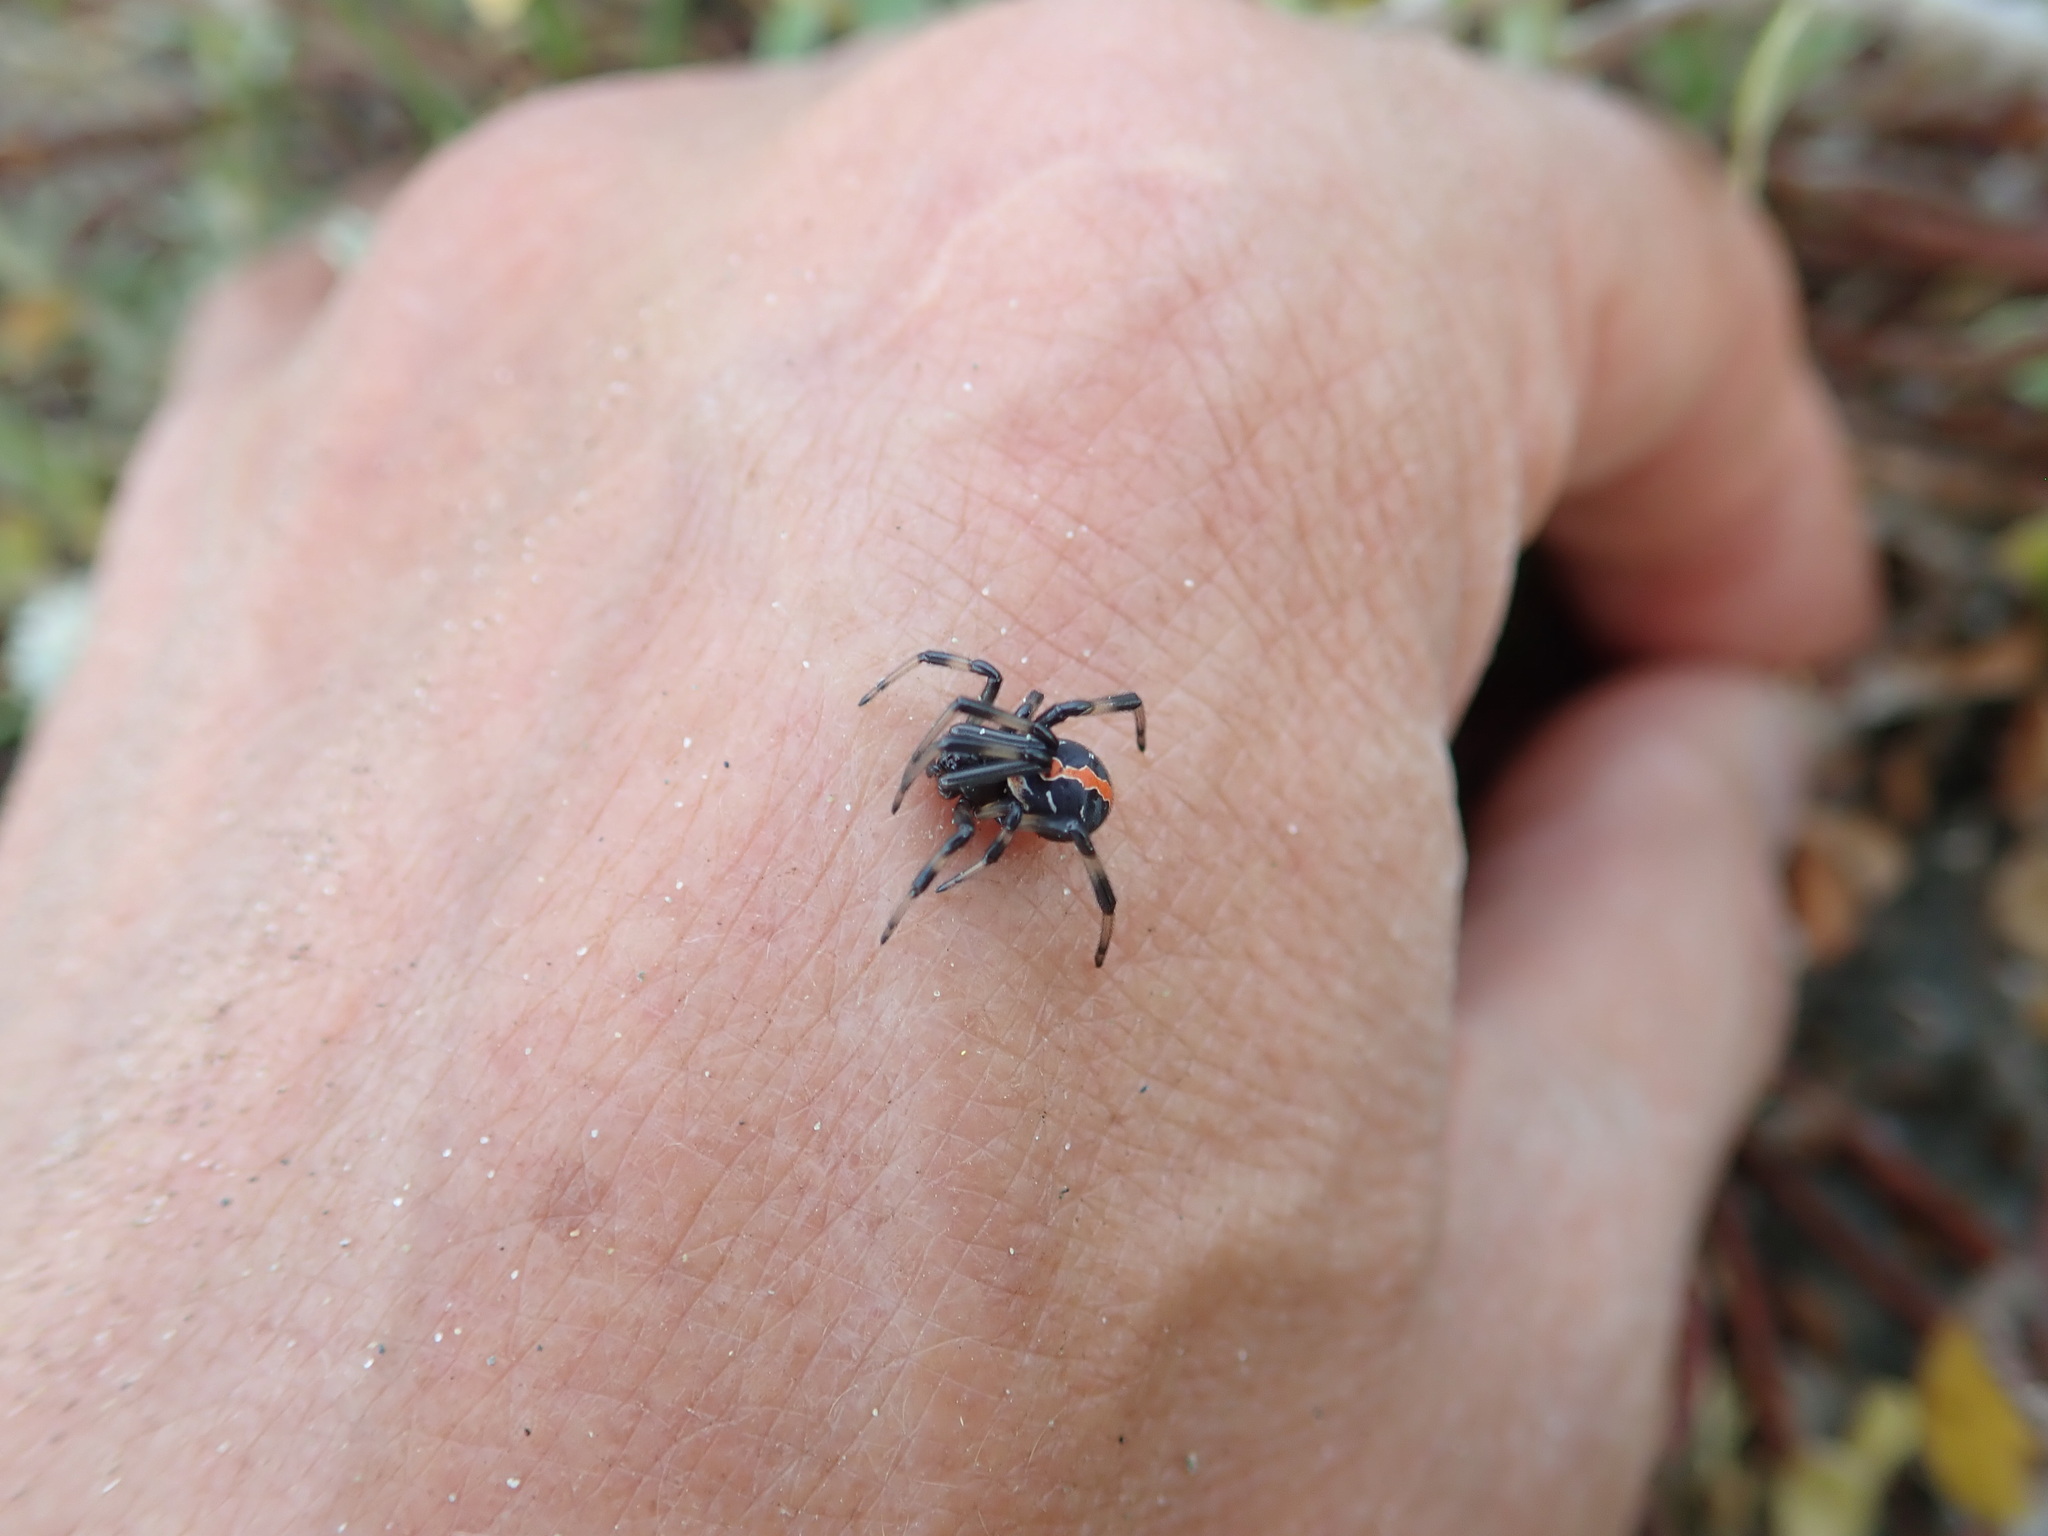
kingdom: Animalia
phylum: Arthropoda
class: Arachnida
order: Araneae
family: Theridiidae
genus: Latrodectus
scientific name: Latrodectus katipo
